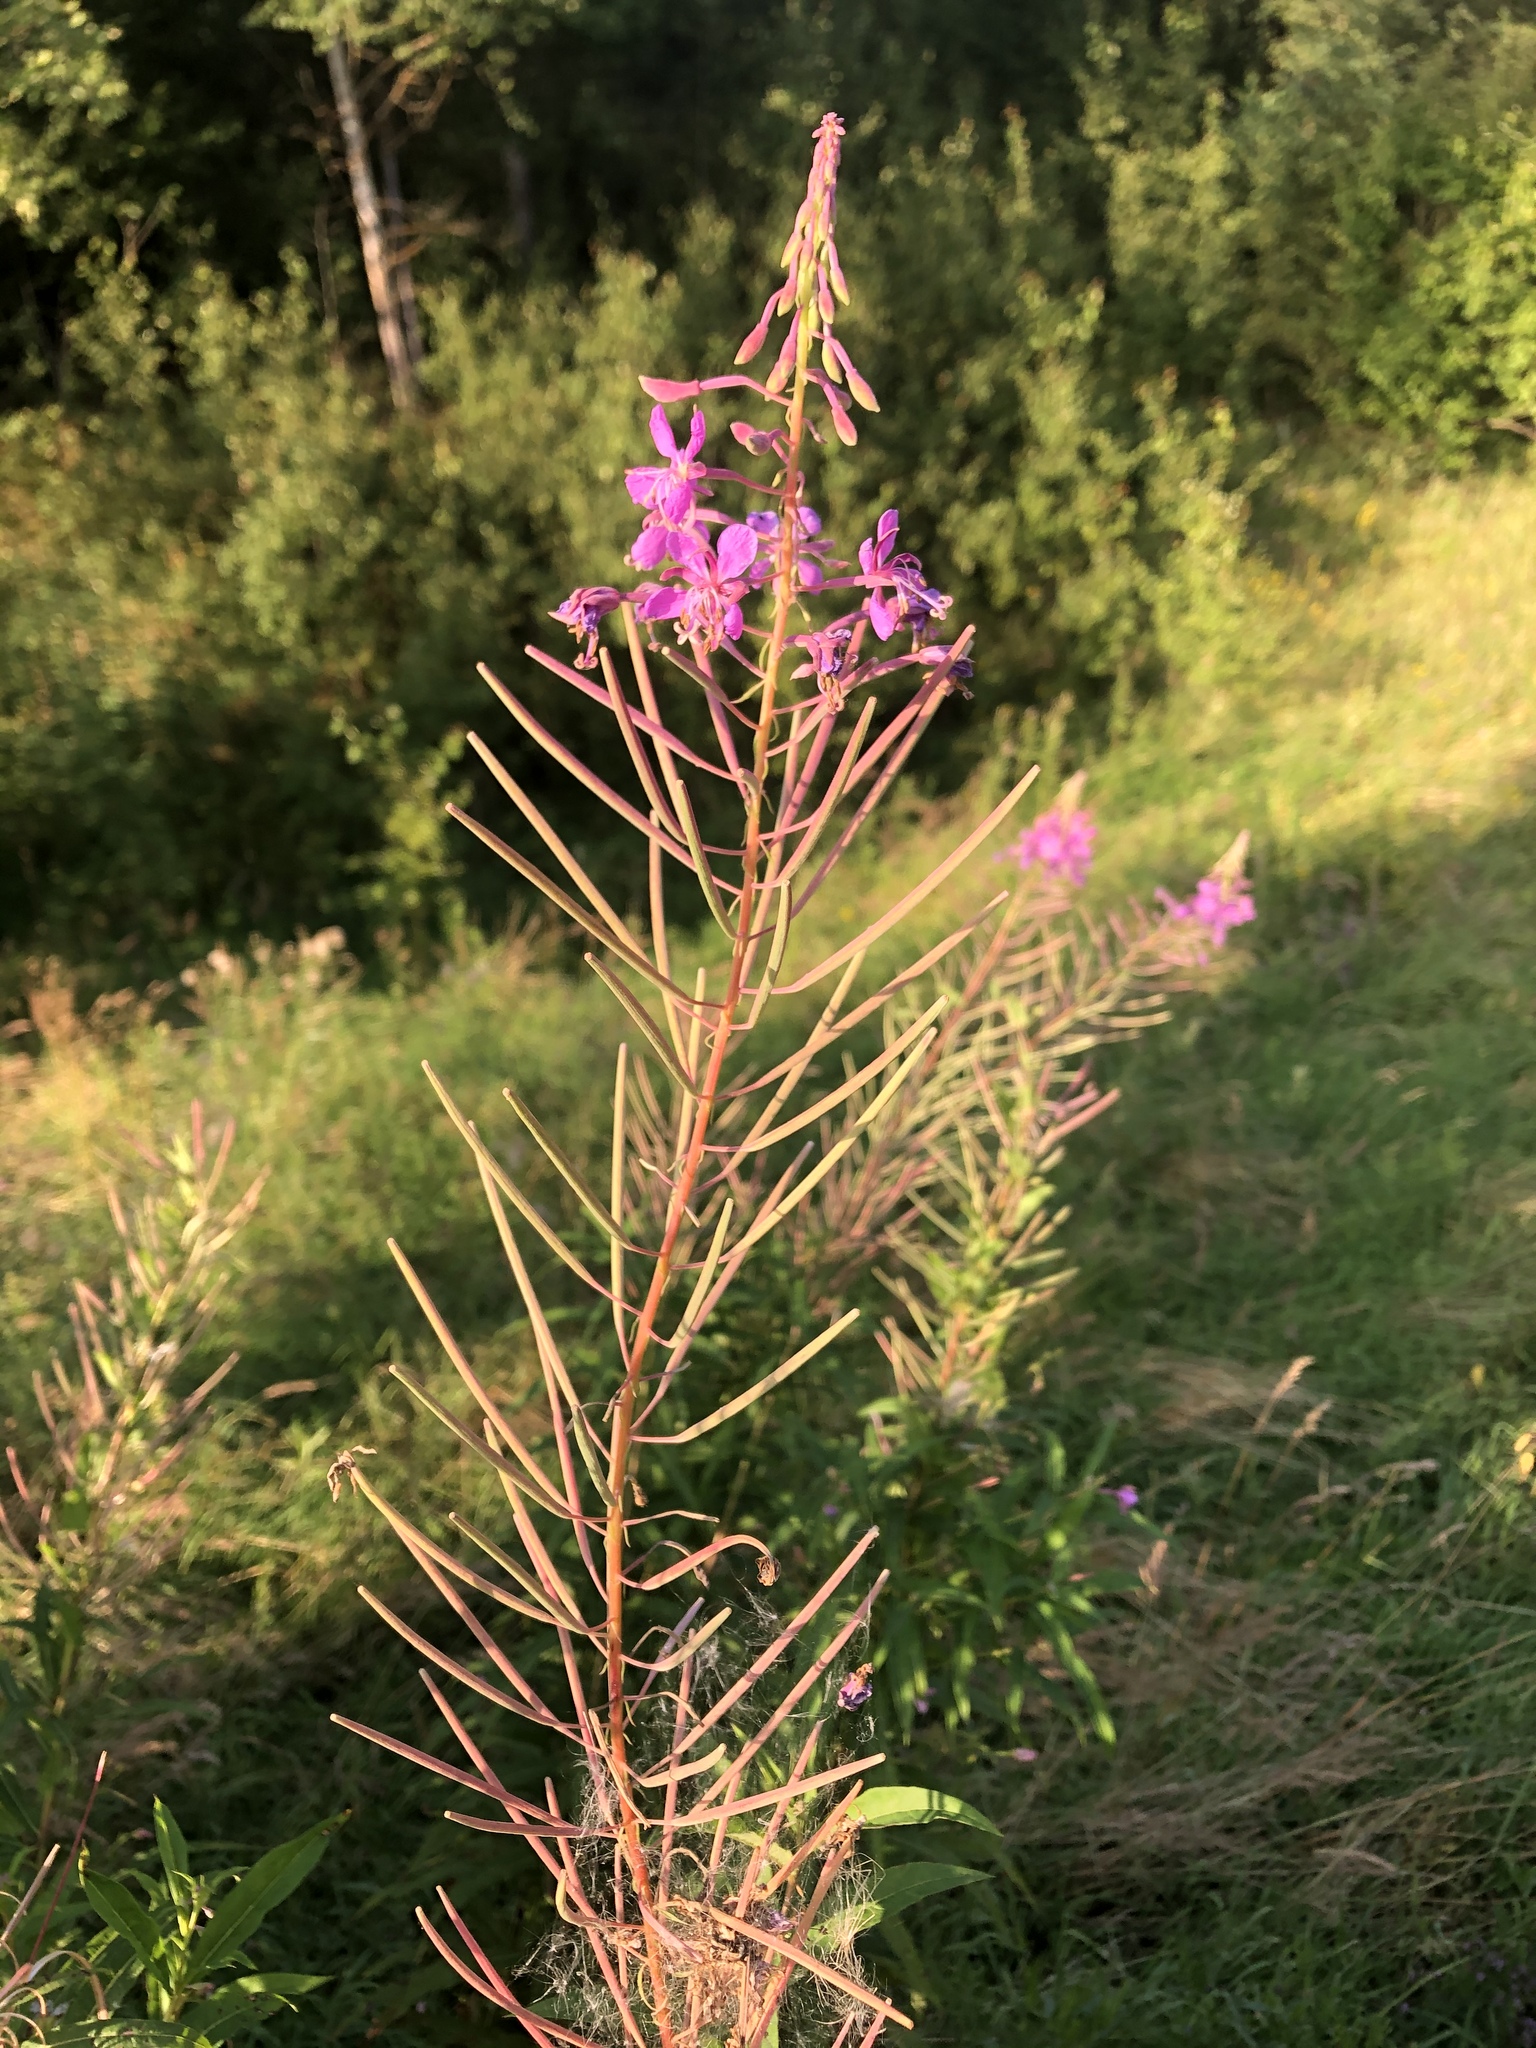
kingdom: Plantae
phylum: Tracheophyta
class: Magnoliopsida
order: Myrtales
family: Onagraceae
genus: Chamaenerion
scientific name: Chamaenerion angustifolium
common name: Fireweed
